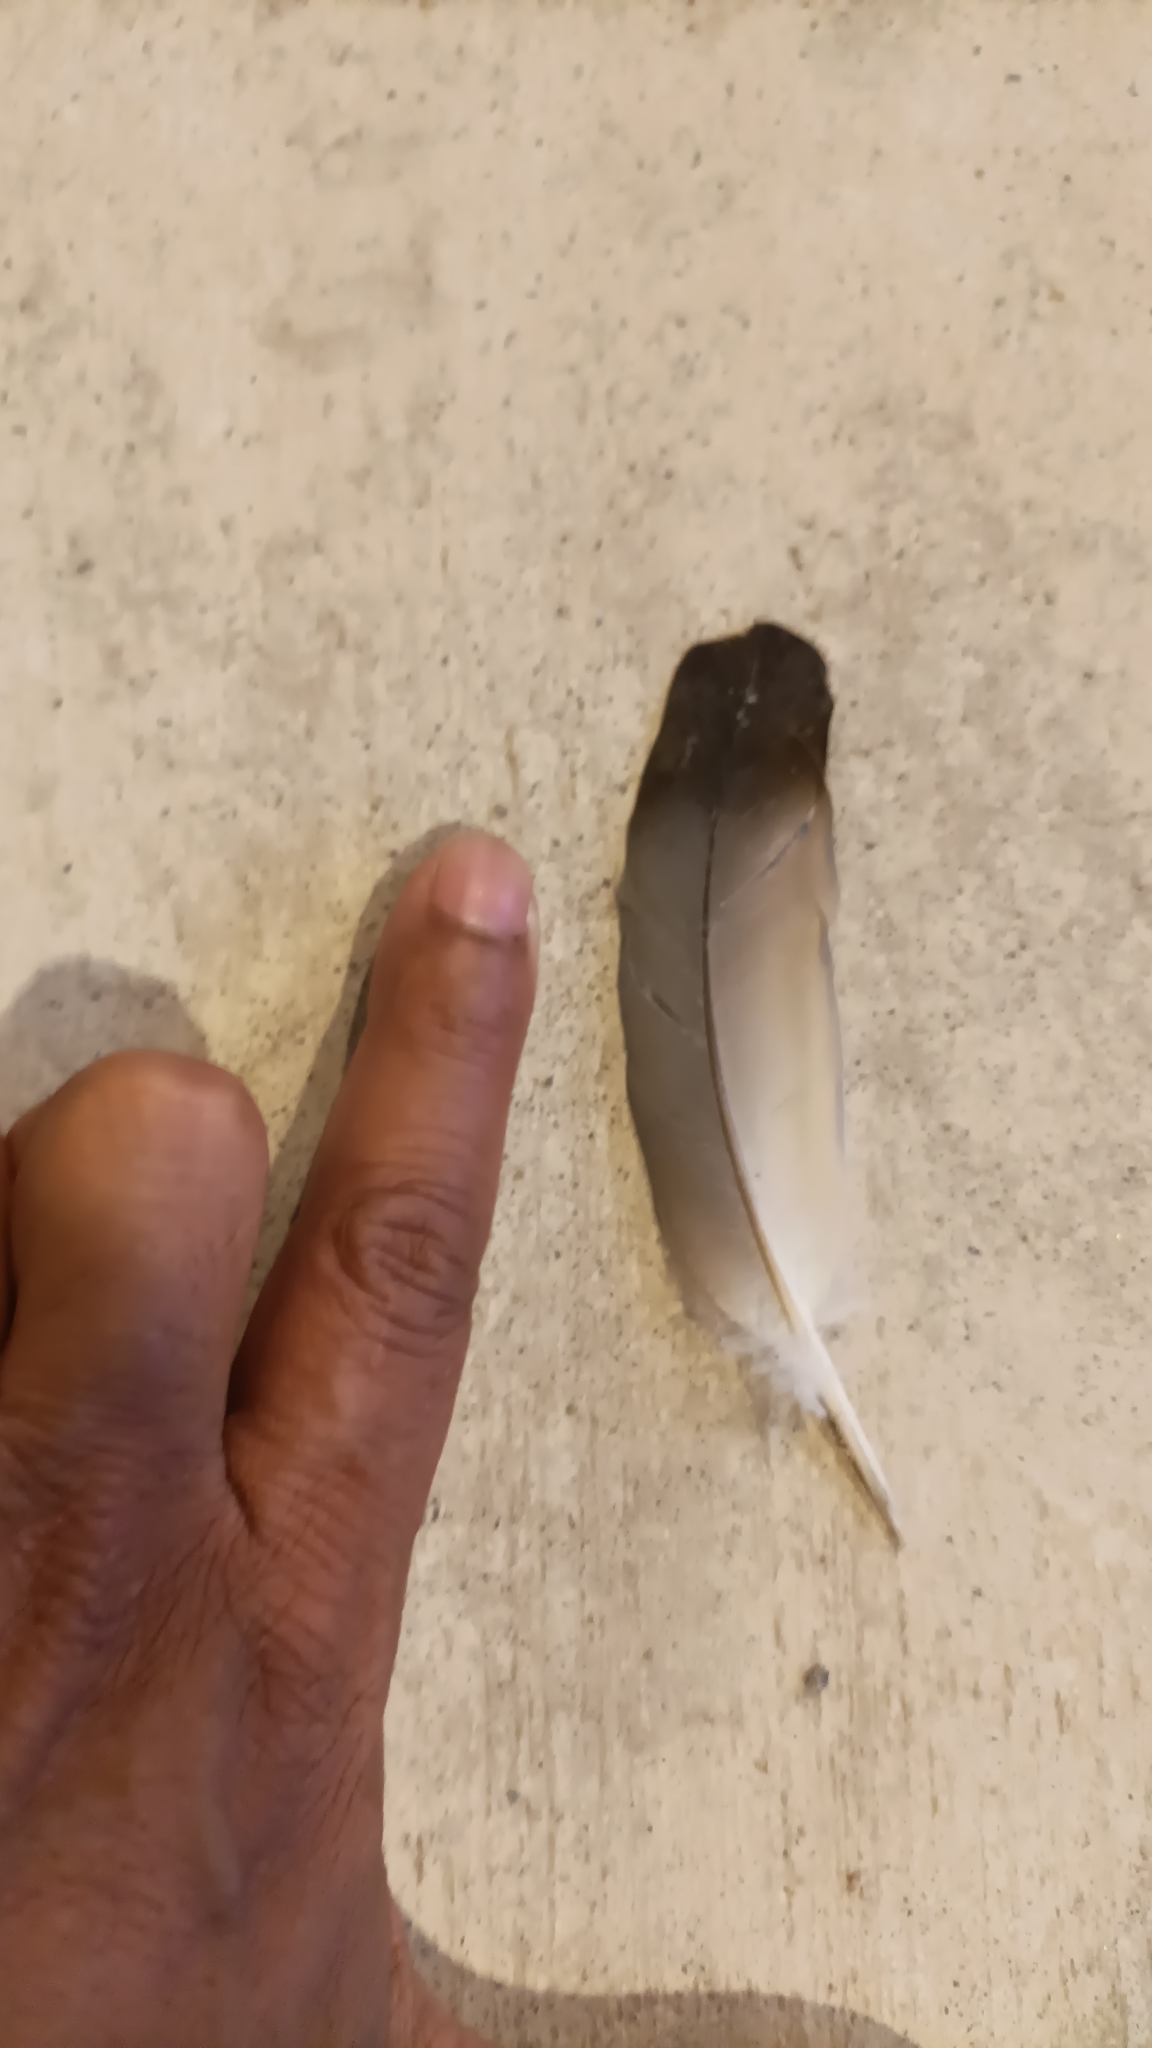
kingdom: Animalia
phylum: Chordata
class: Aves
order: Columbiformes
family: Columbidae
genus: Columba
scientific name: Columba livia
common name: Rock pigeon
